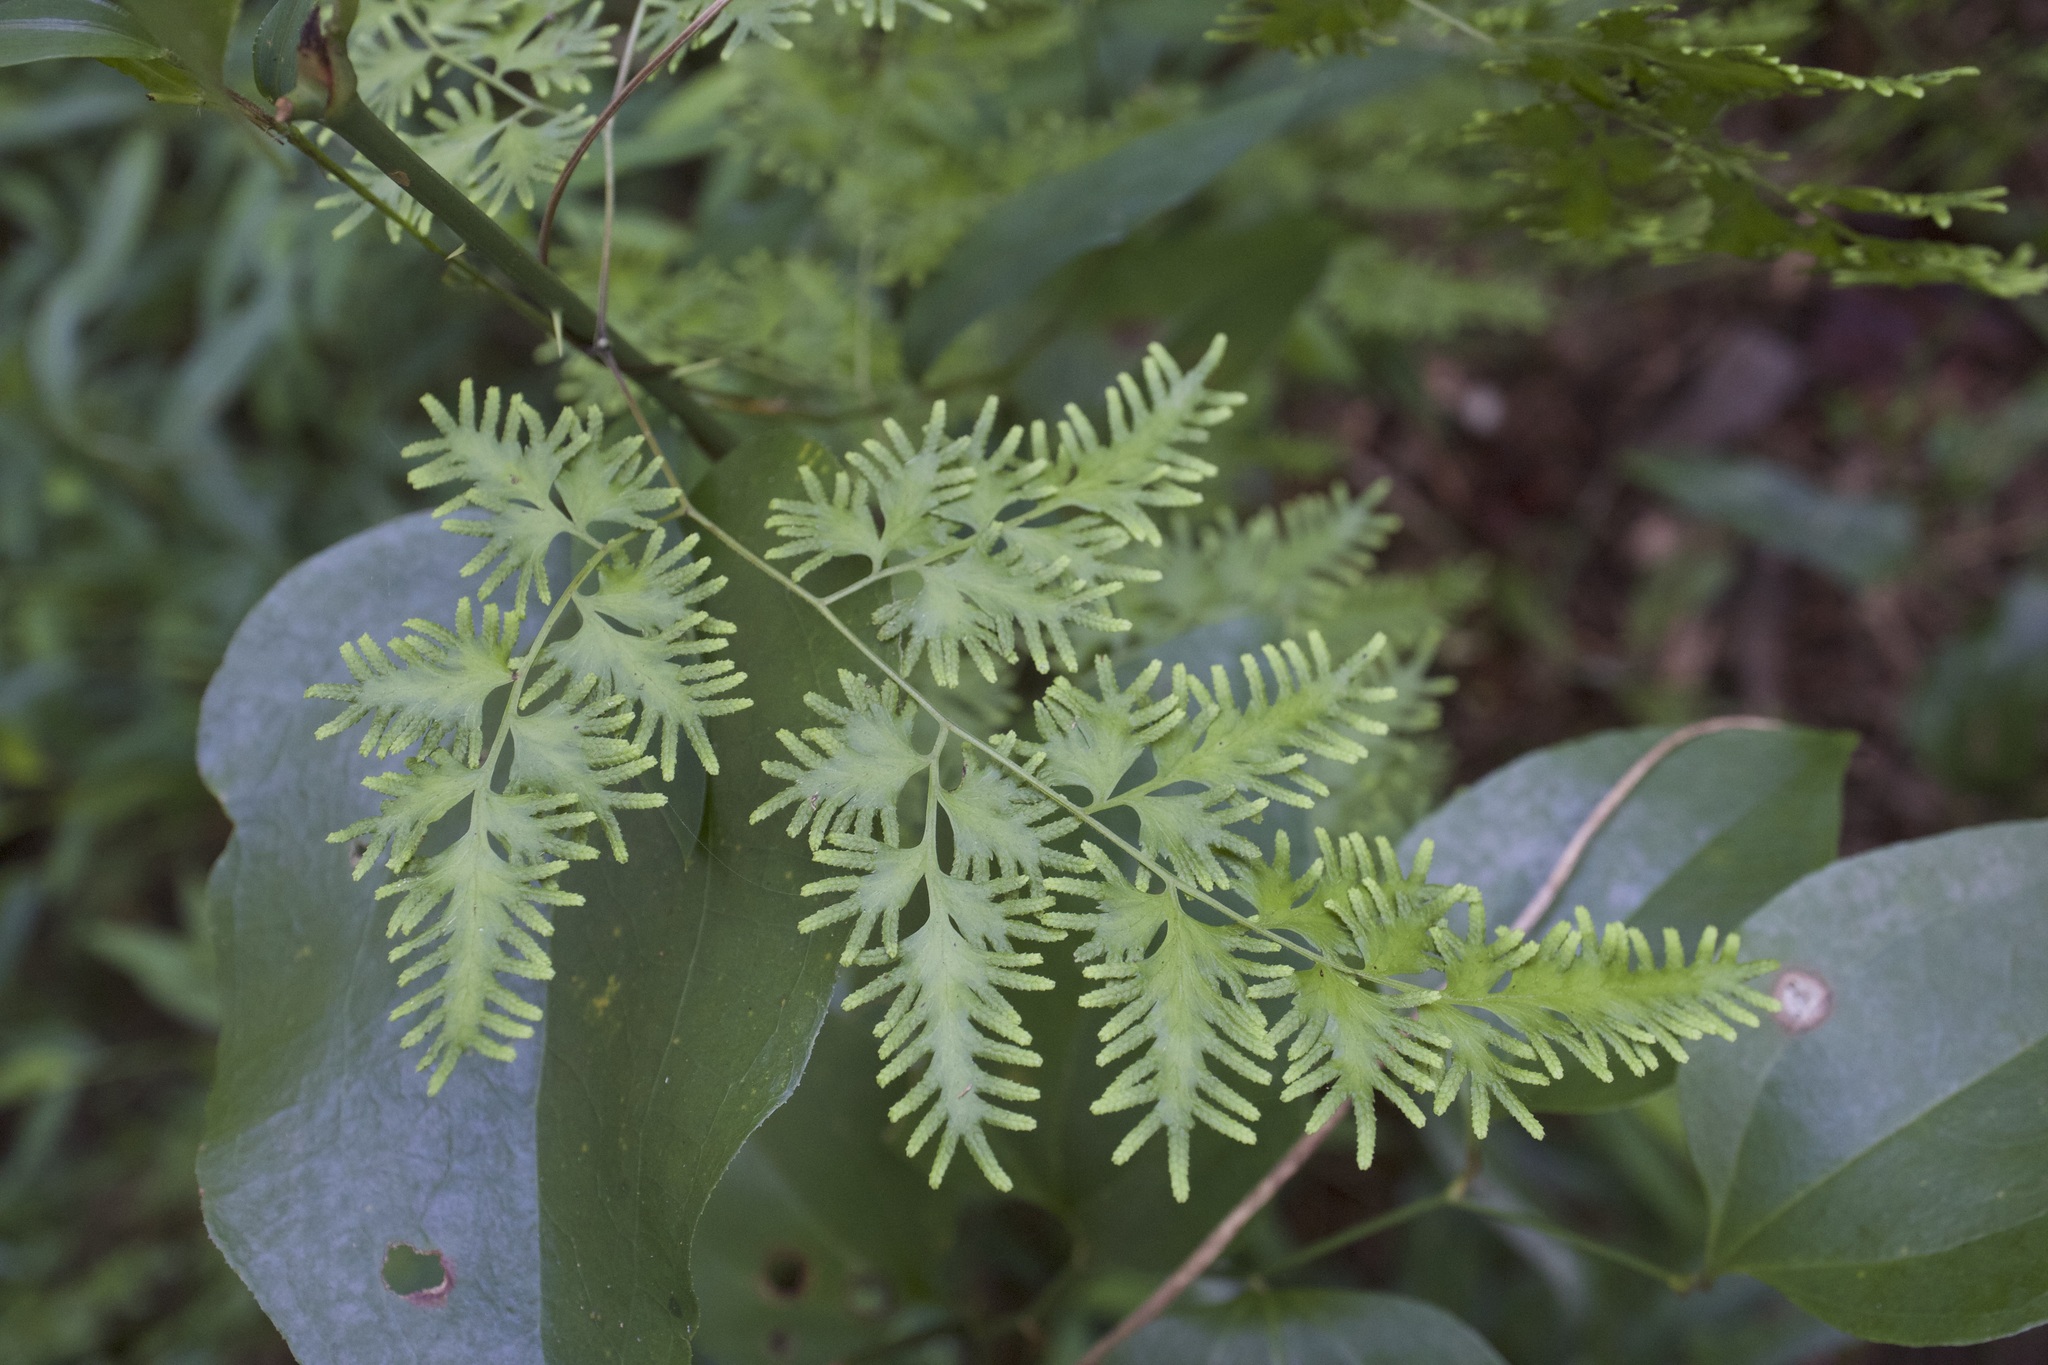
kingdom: Plantae
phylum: Tracheophyta
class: Polypodiopsida
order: Schizaeales
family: Lygodiaceae
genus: Lygodium
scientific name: Lygodium japonicum
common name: Japanese climbing fern
